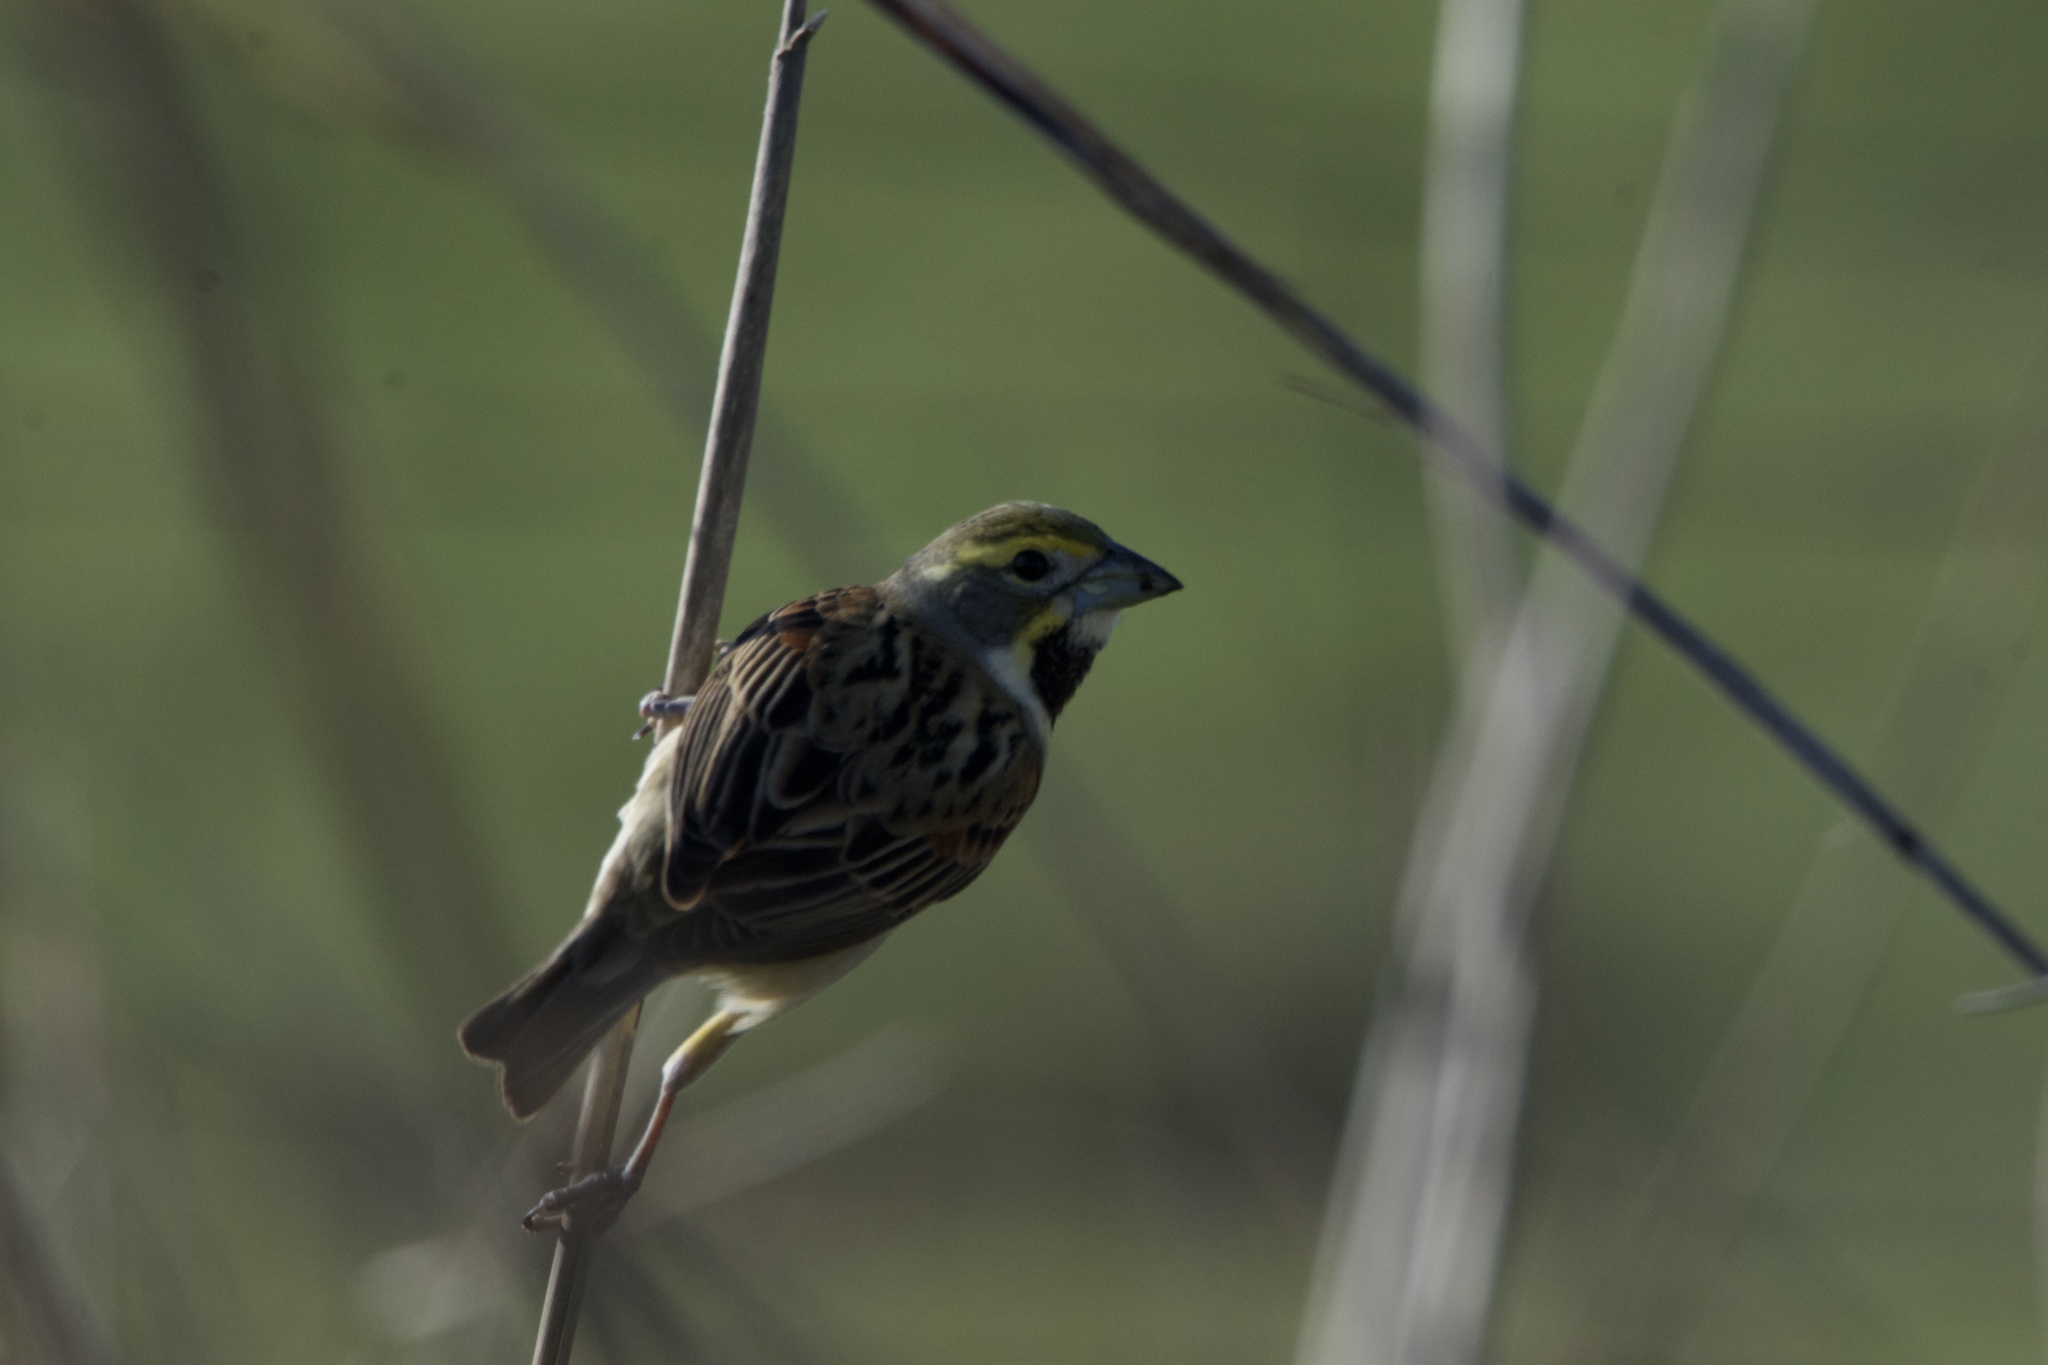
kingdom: Animalia
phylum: Chordata
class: Aves
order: Passeriformes
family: Cardinalidae
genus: Spiza
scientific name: Spiza americana
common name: Dickcissel
